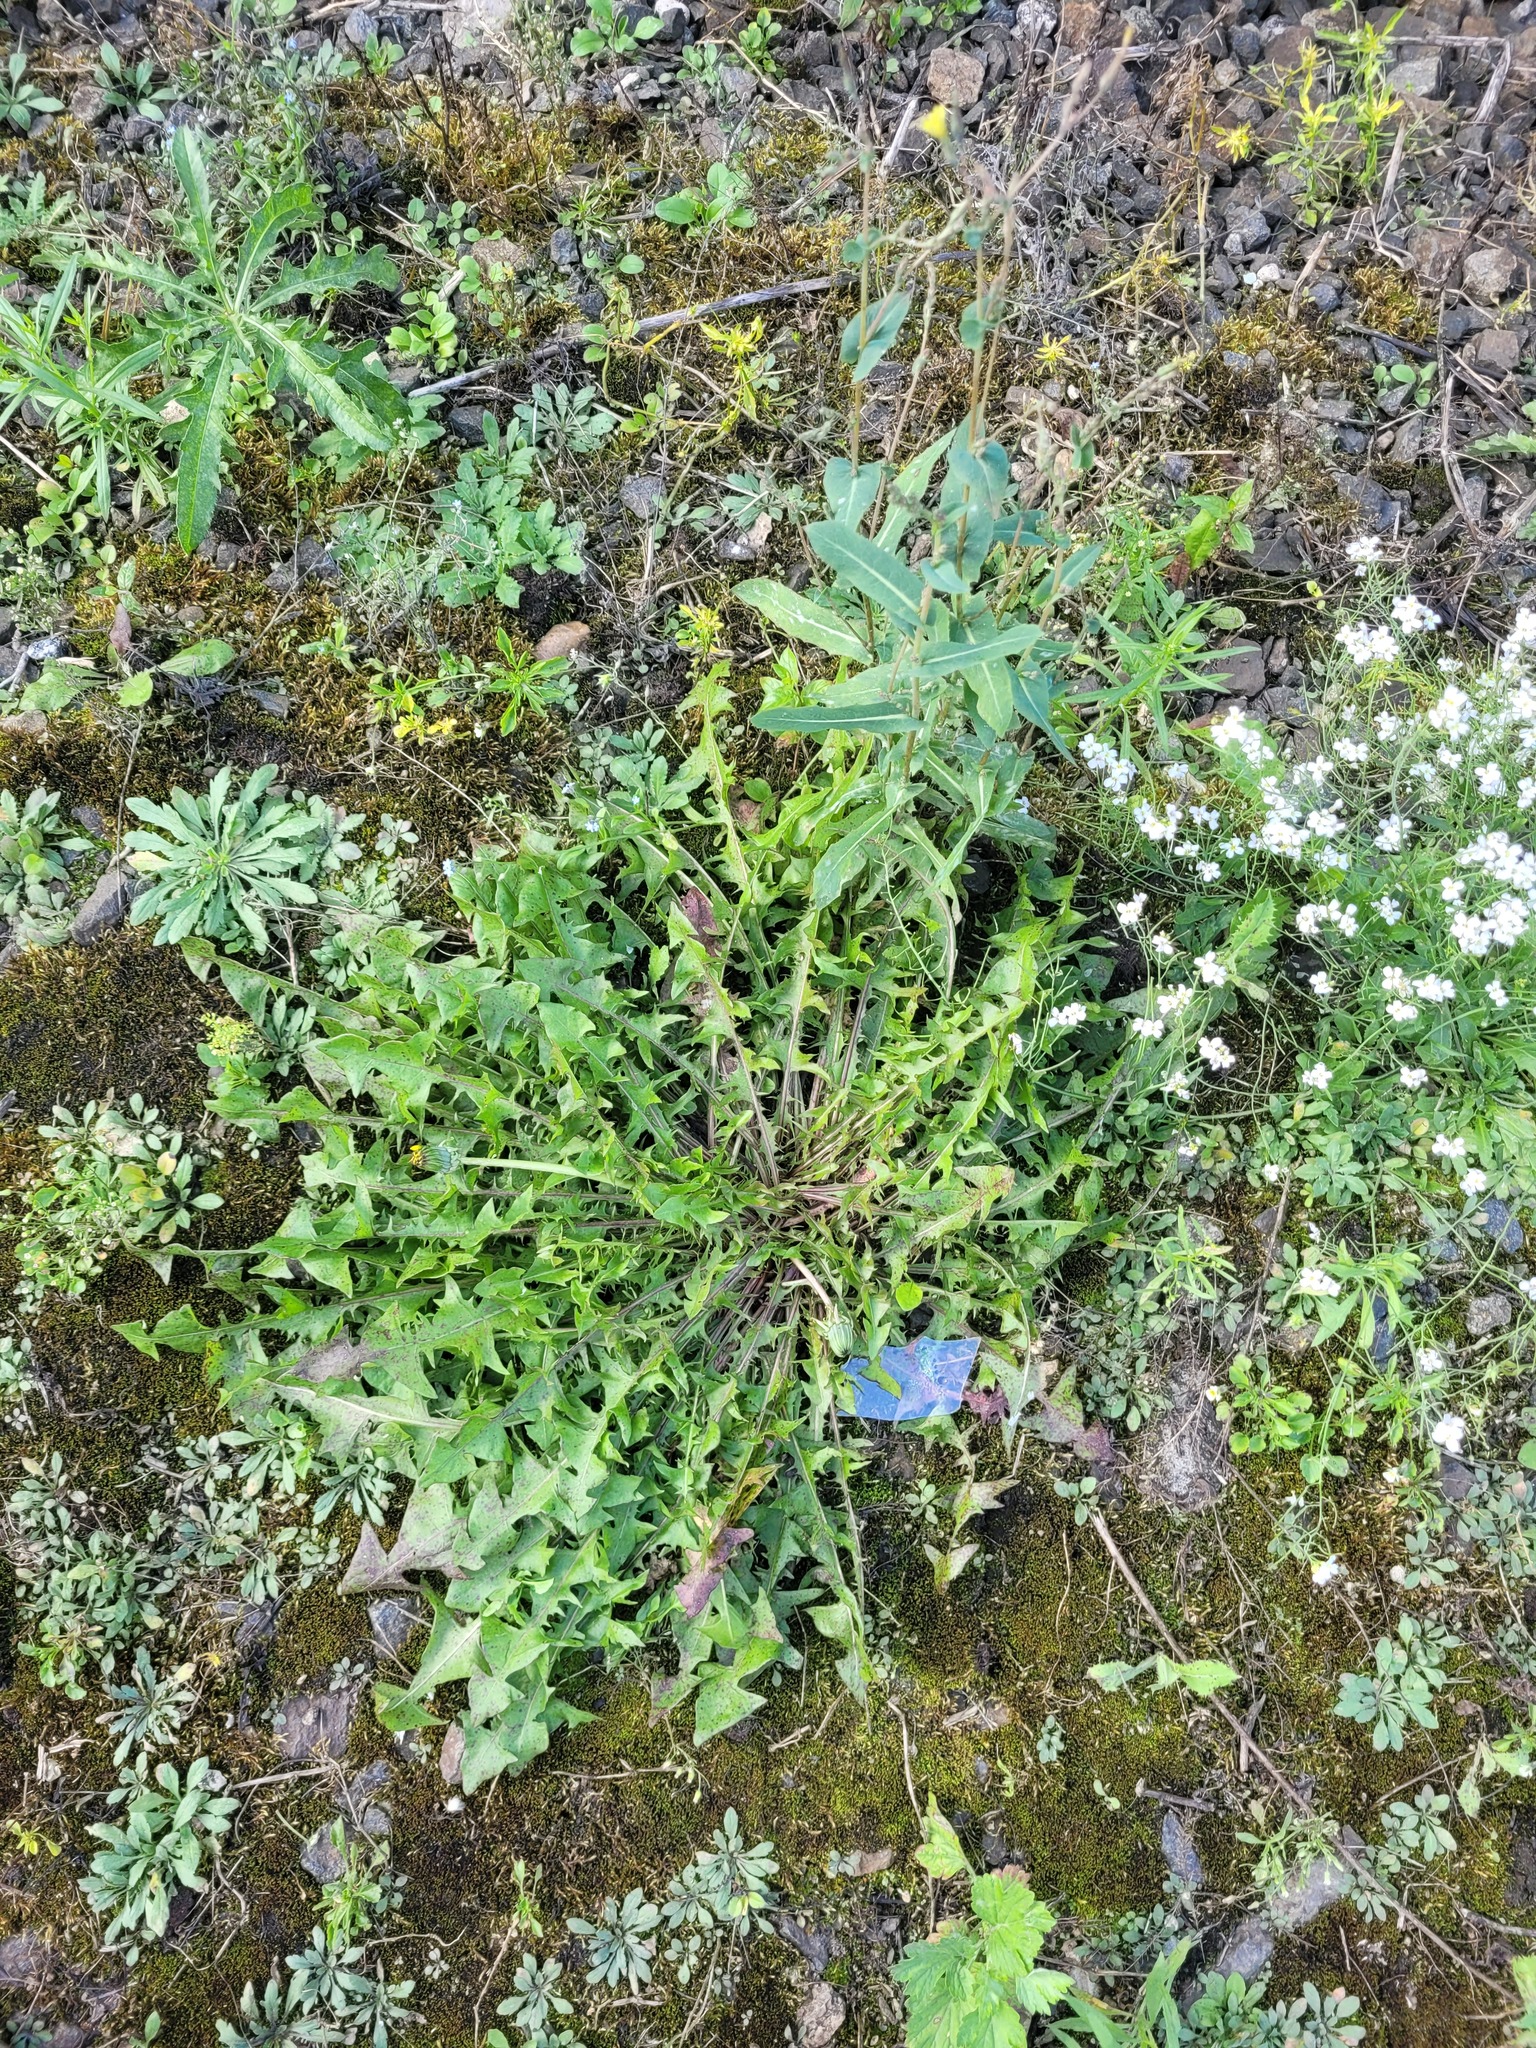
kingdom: Plantae
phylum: Tracheophyta
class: Magnoliopsida
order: Asterales
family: Asteraceae
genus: Taraxacum
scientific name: Taraxacum officinale
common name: Common dandelion
